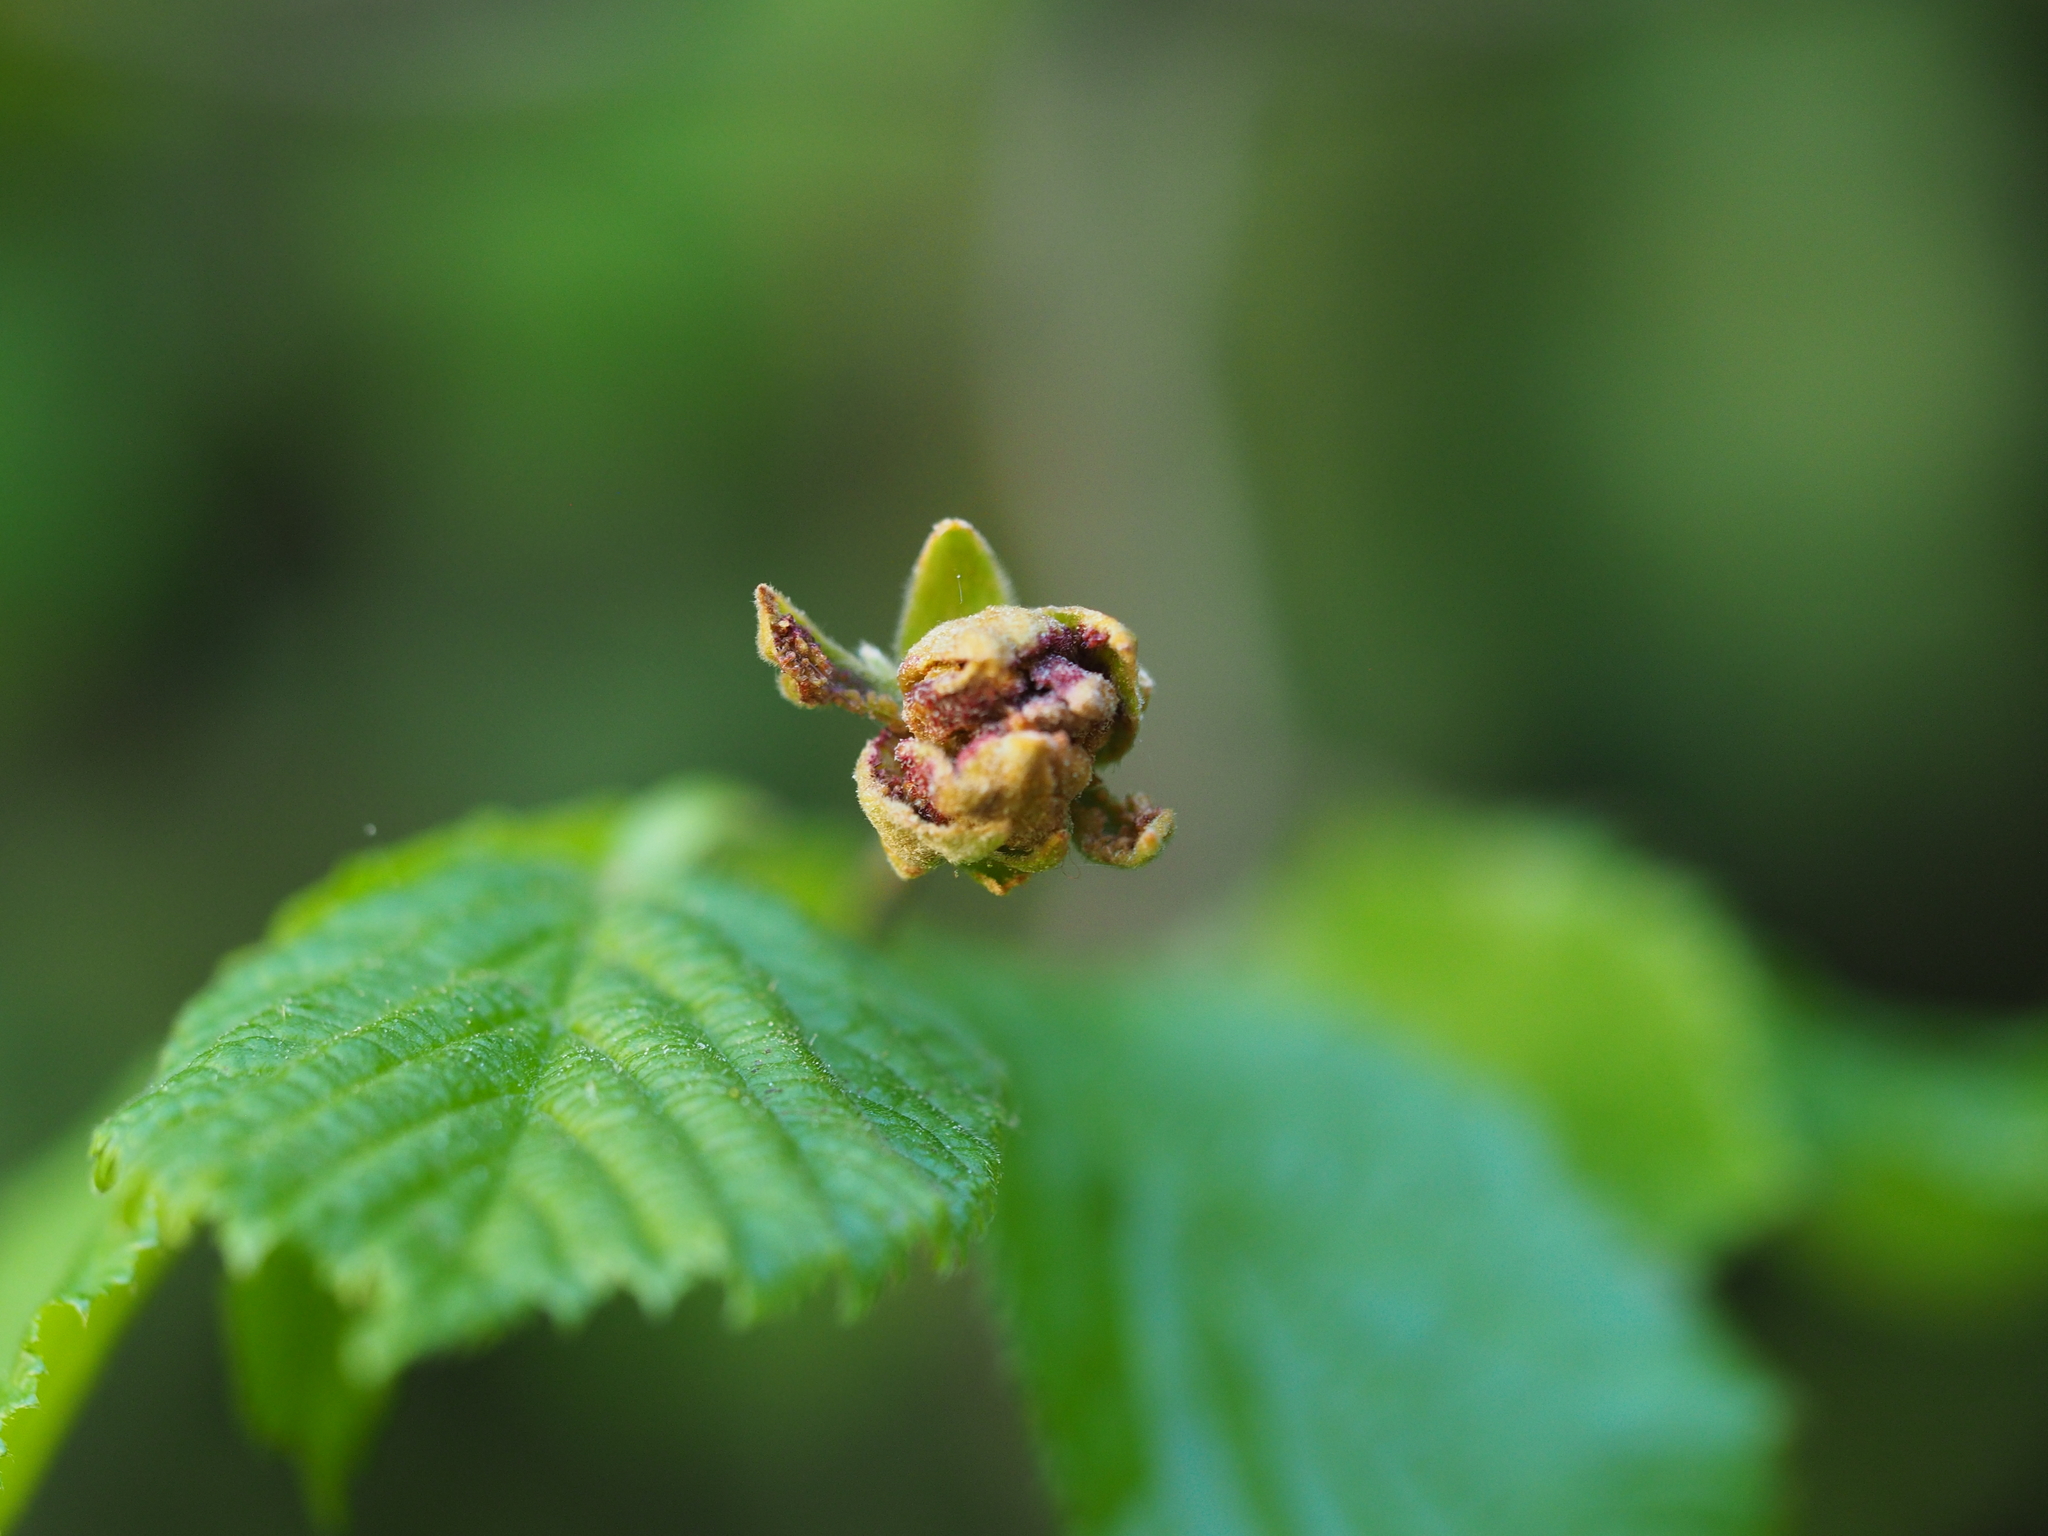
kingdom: Animalia
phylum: Arthropoda
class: Arachnida
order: Trombidiformes
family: Phytoptidae
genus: Phytoptus
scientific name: Phytoptus avellanae
